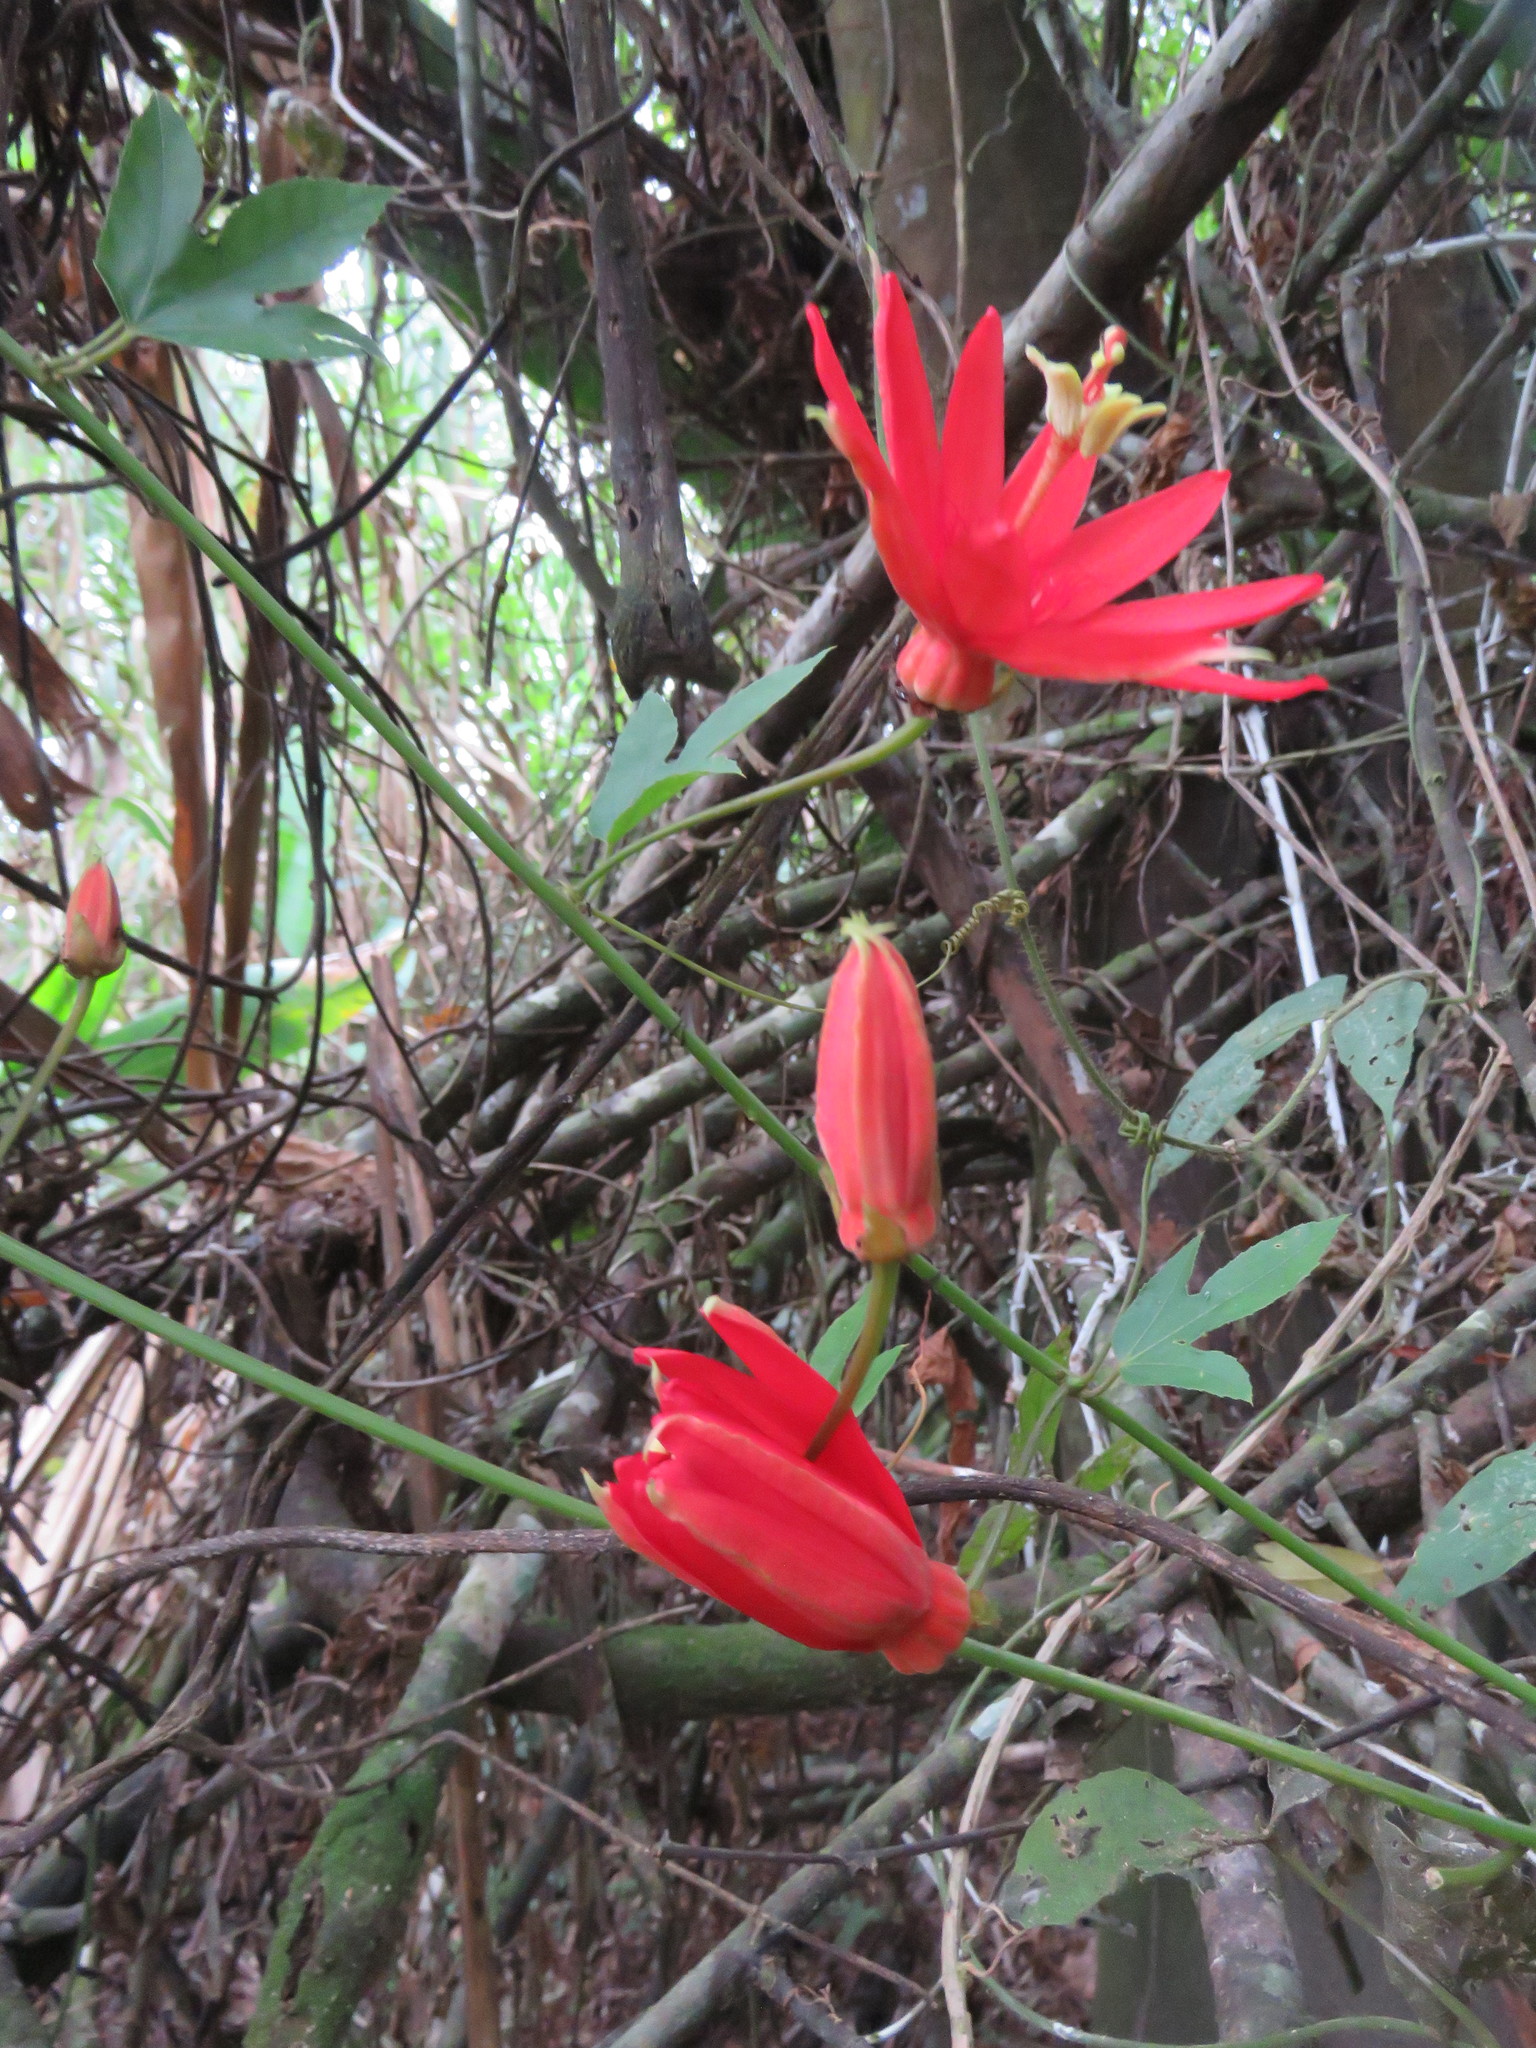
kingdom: Plantae
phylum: Tracheophyta
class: Magnoliopsida
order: Malpighiales
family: Passifloraceae
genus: Passiflora
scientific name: Passiflora quadriglandulosa
